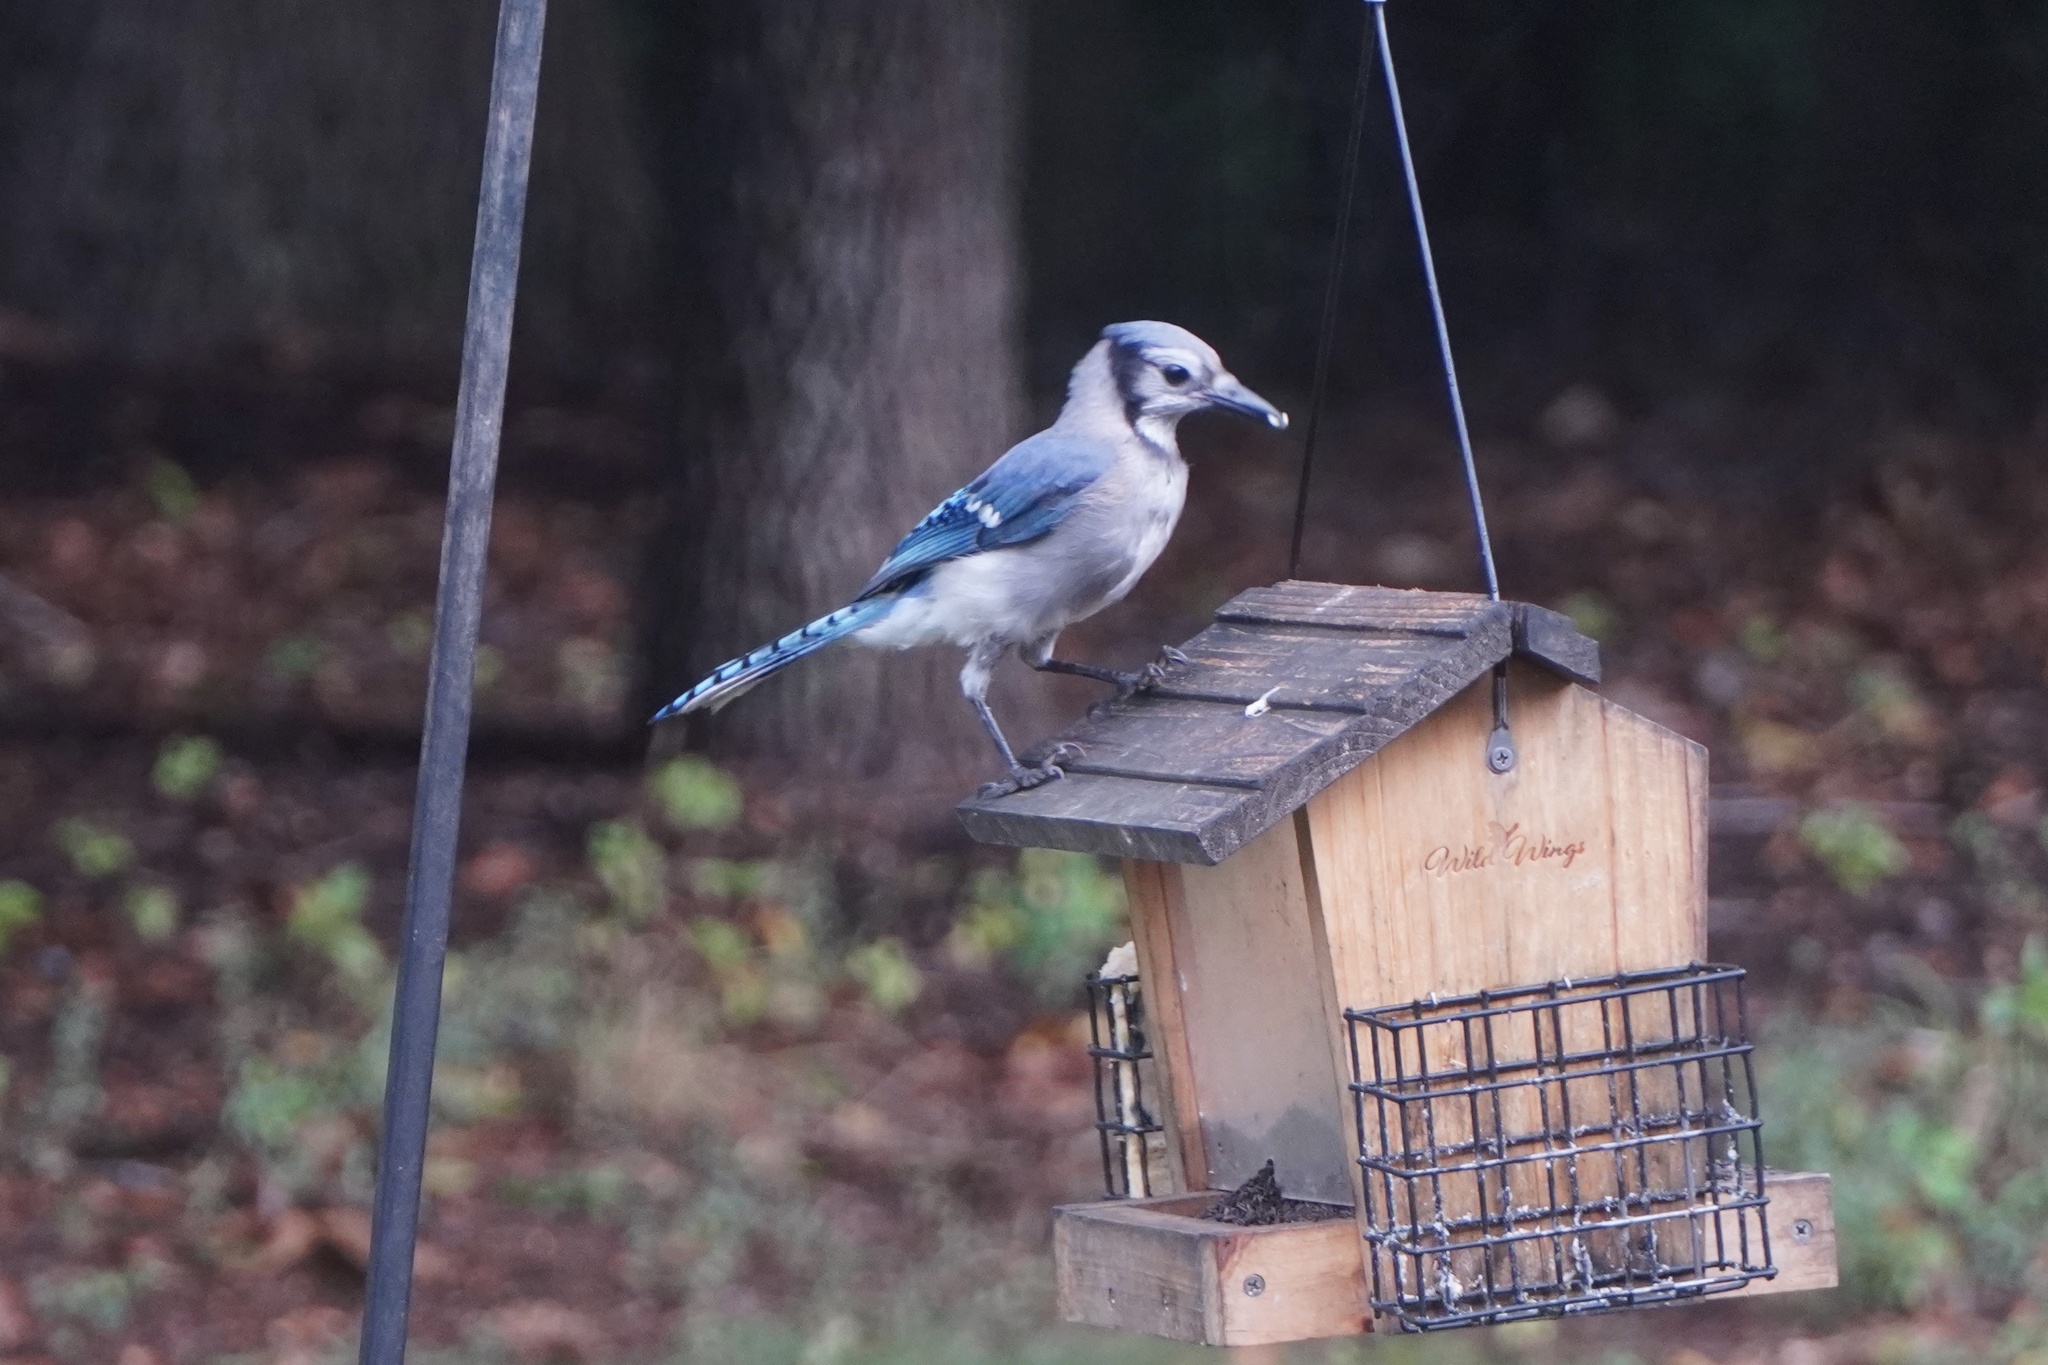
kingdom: Animalia
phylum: Chordata
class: Aves
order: Passeriformes
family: Corvidae
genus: Cyanocitta
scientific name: Cyanocitta cristata
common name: Blue jay
